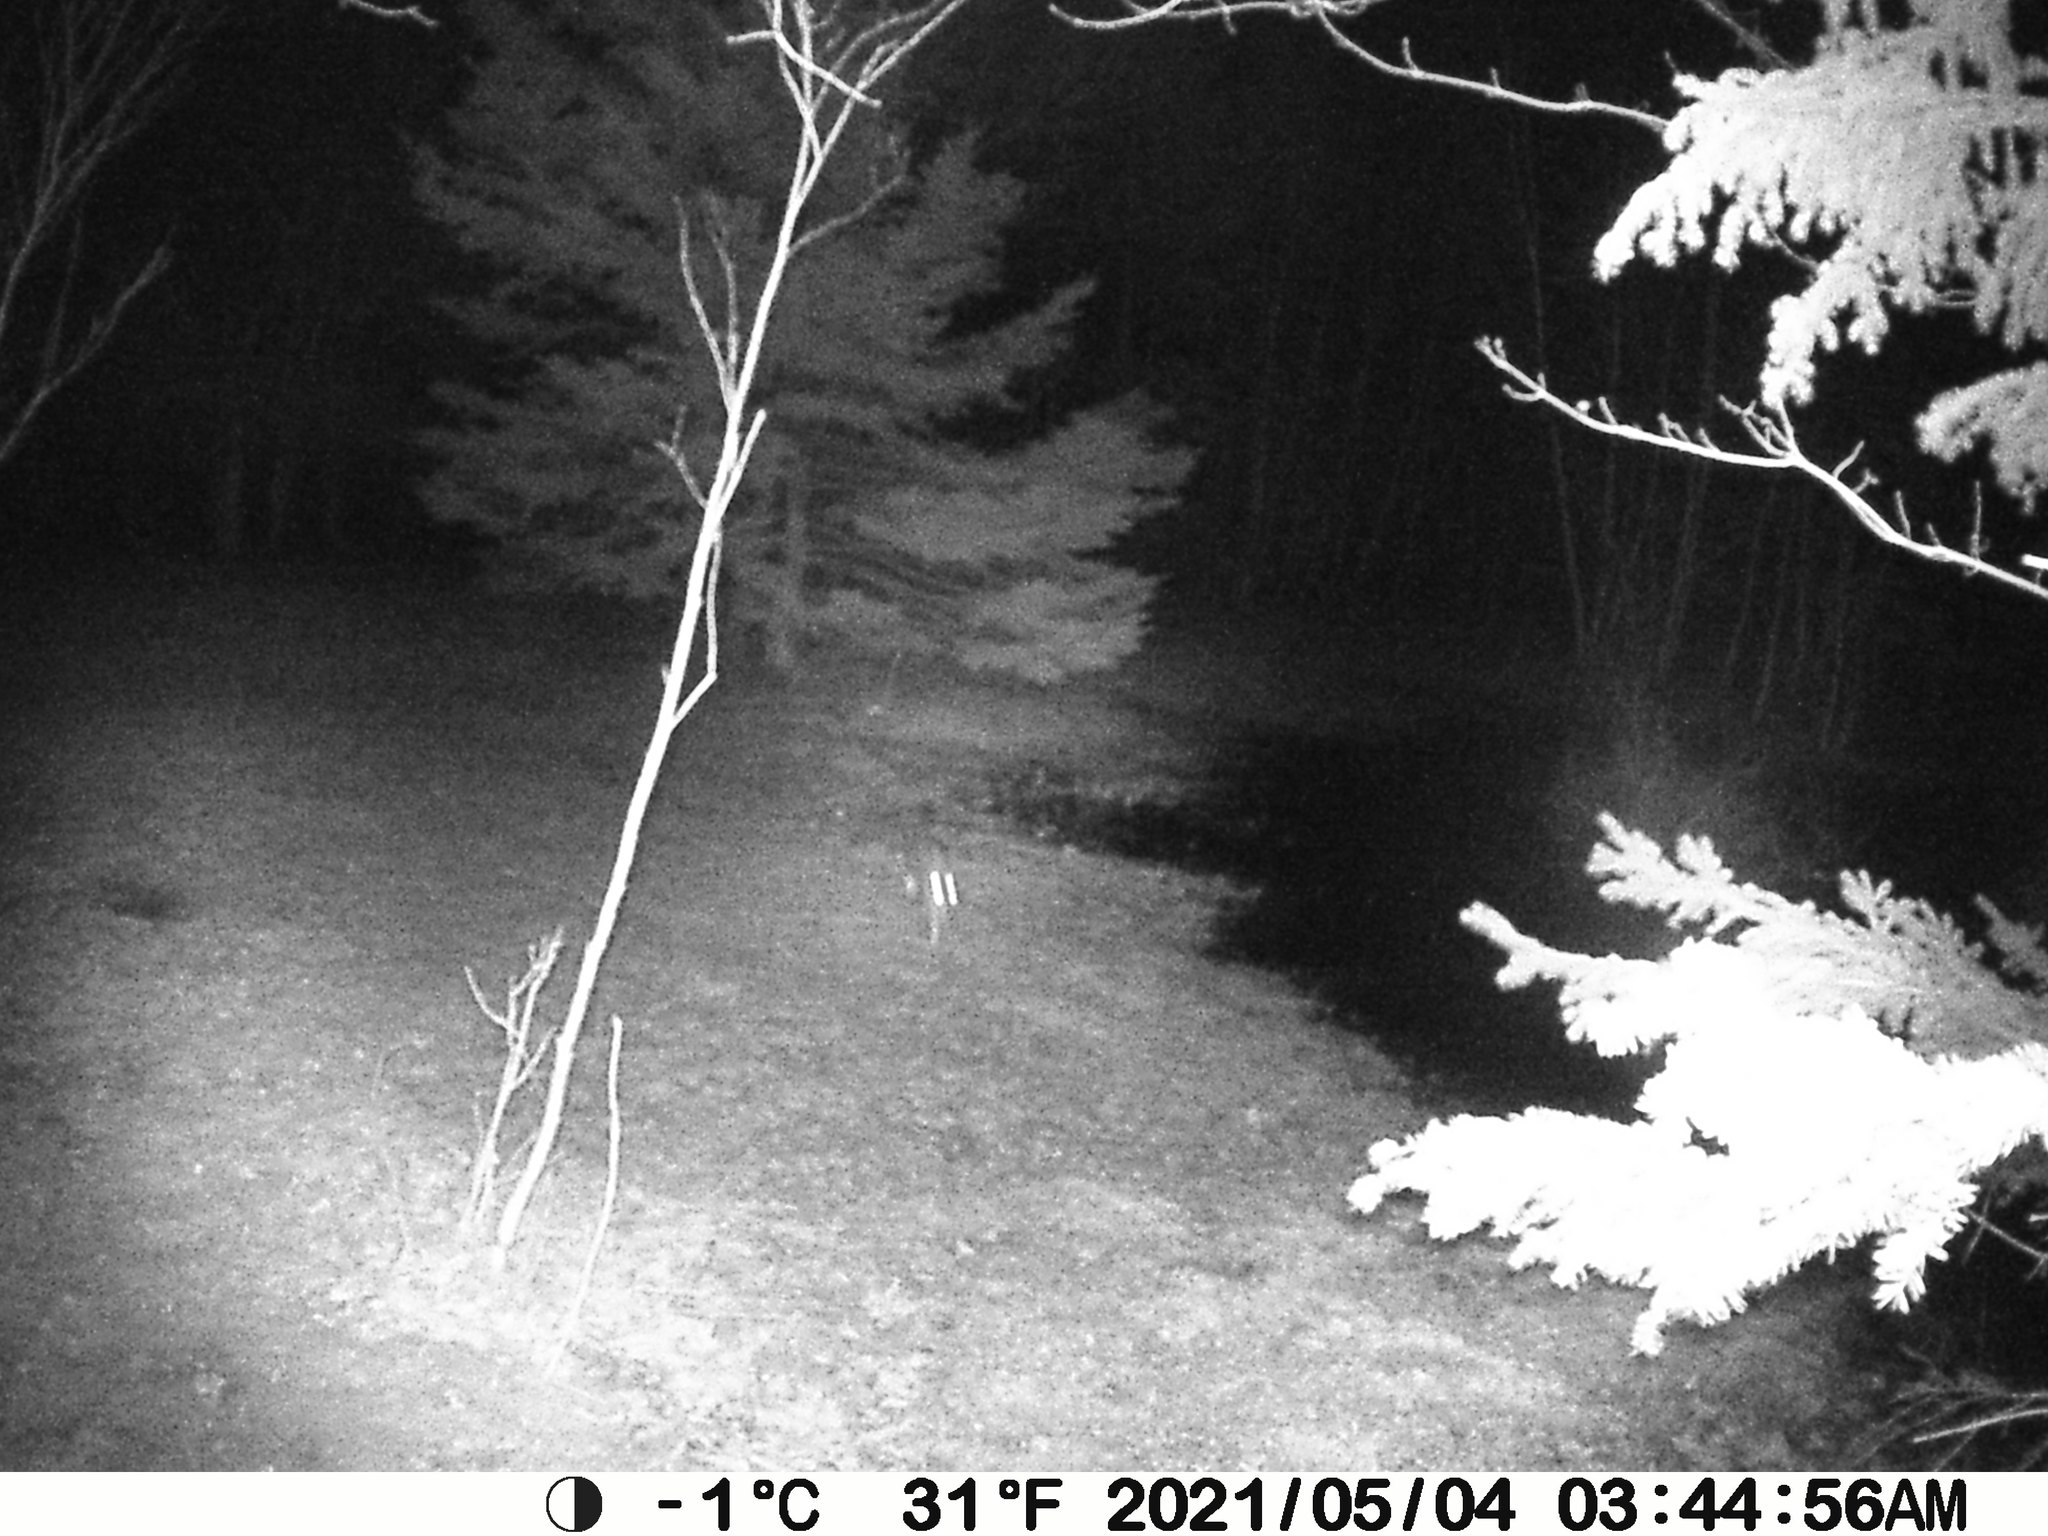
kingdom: Animalia
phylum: Chordata
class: Mammalia
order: Lagomorpha
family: Leporidae
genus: Lepus
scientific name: Lepus americanus
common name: Snowshoe hare
